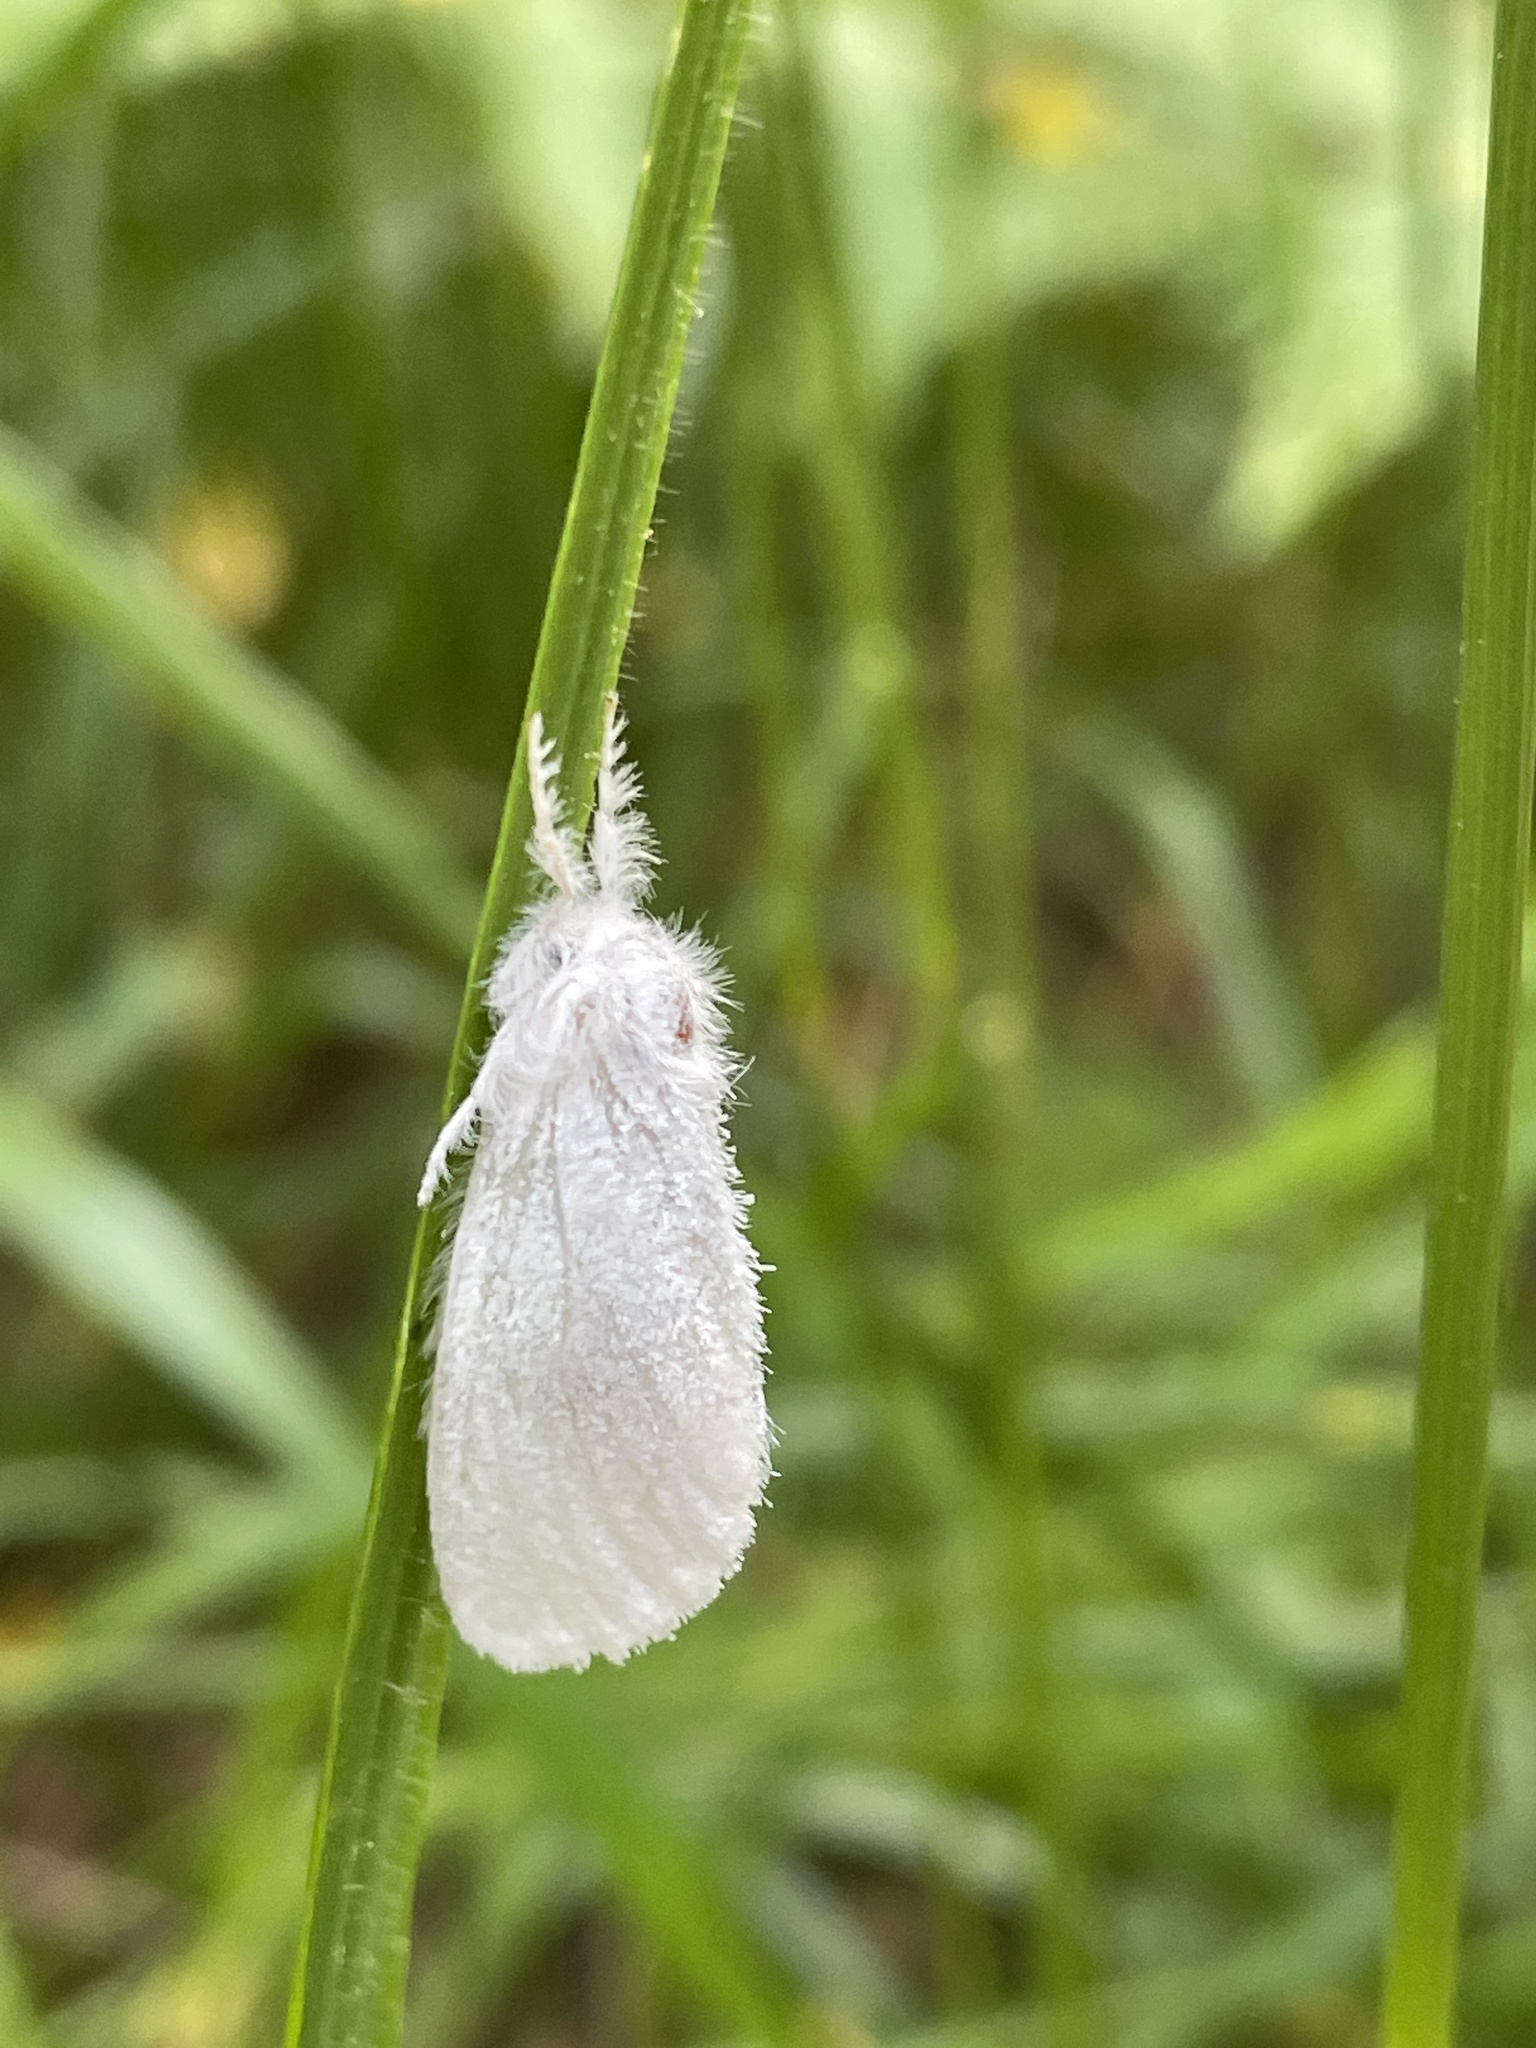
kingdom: Animalia
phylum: Arthropoda
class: Insecta
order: Lepidoptera
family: Erebidae
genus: Sphrageidus
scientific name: Sphrageidus similis
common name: Yellow-tail
